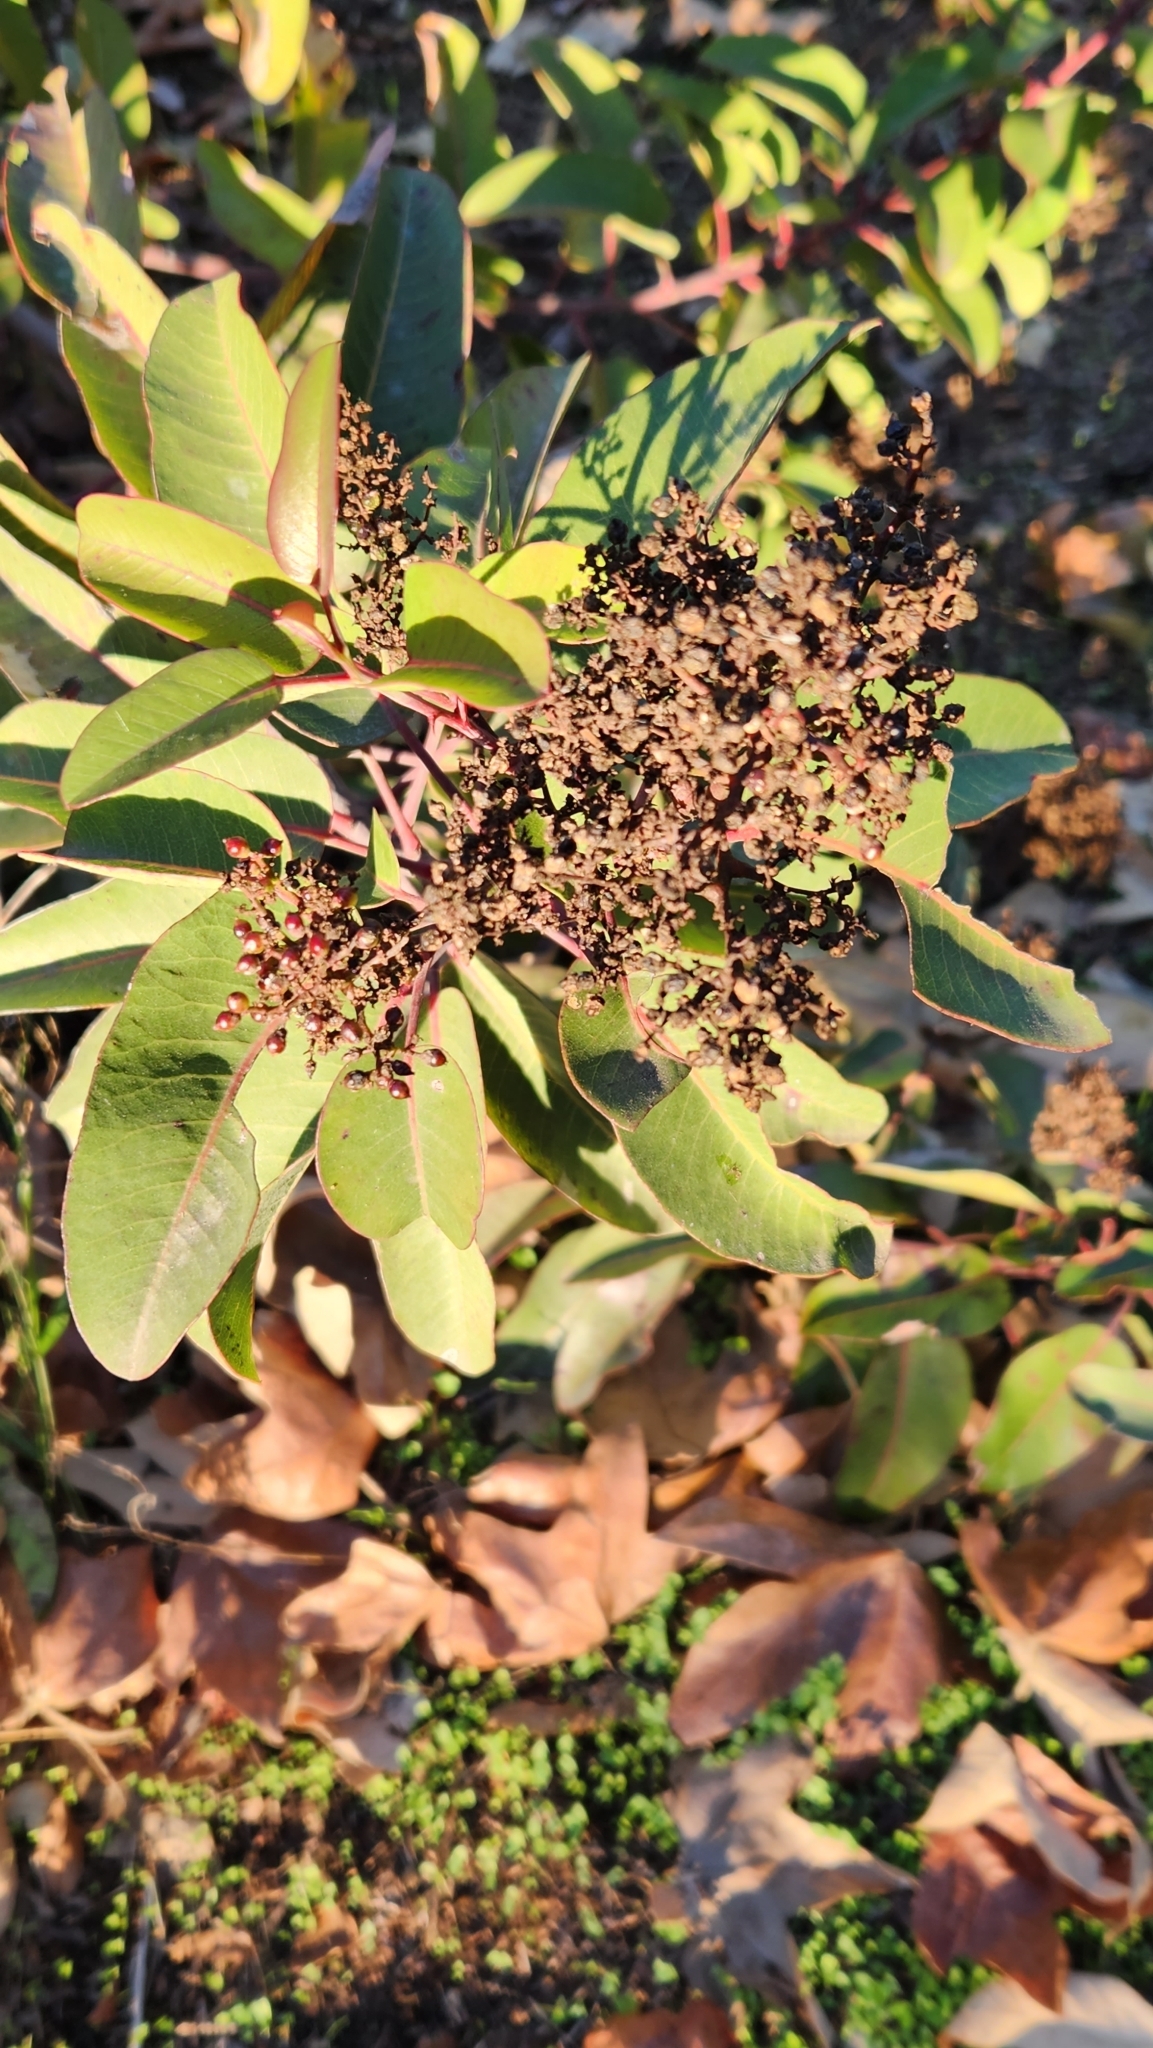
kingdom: Plantae
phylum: Tracheophyta
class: Magnoliopsida
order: Sapindales
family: Anacardiaceae
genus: Malosma
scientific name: Malosma laurina
